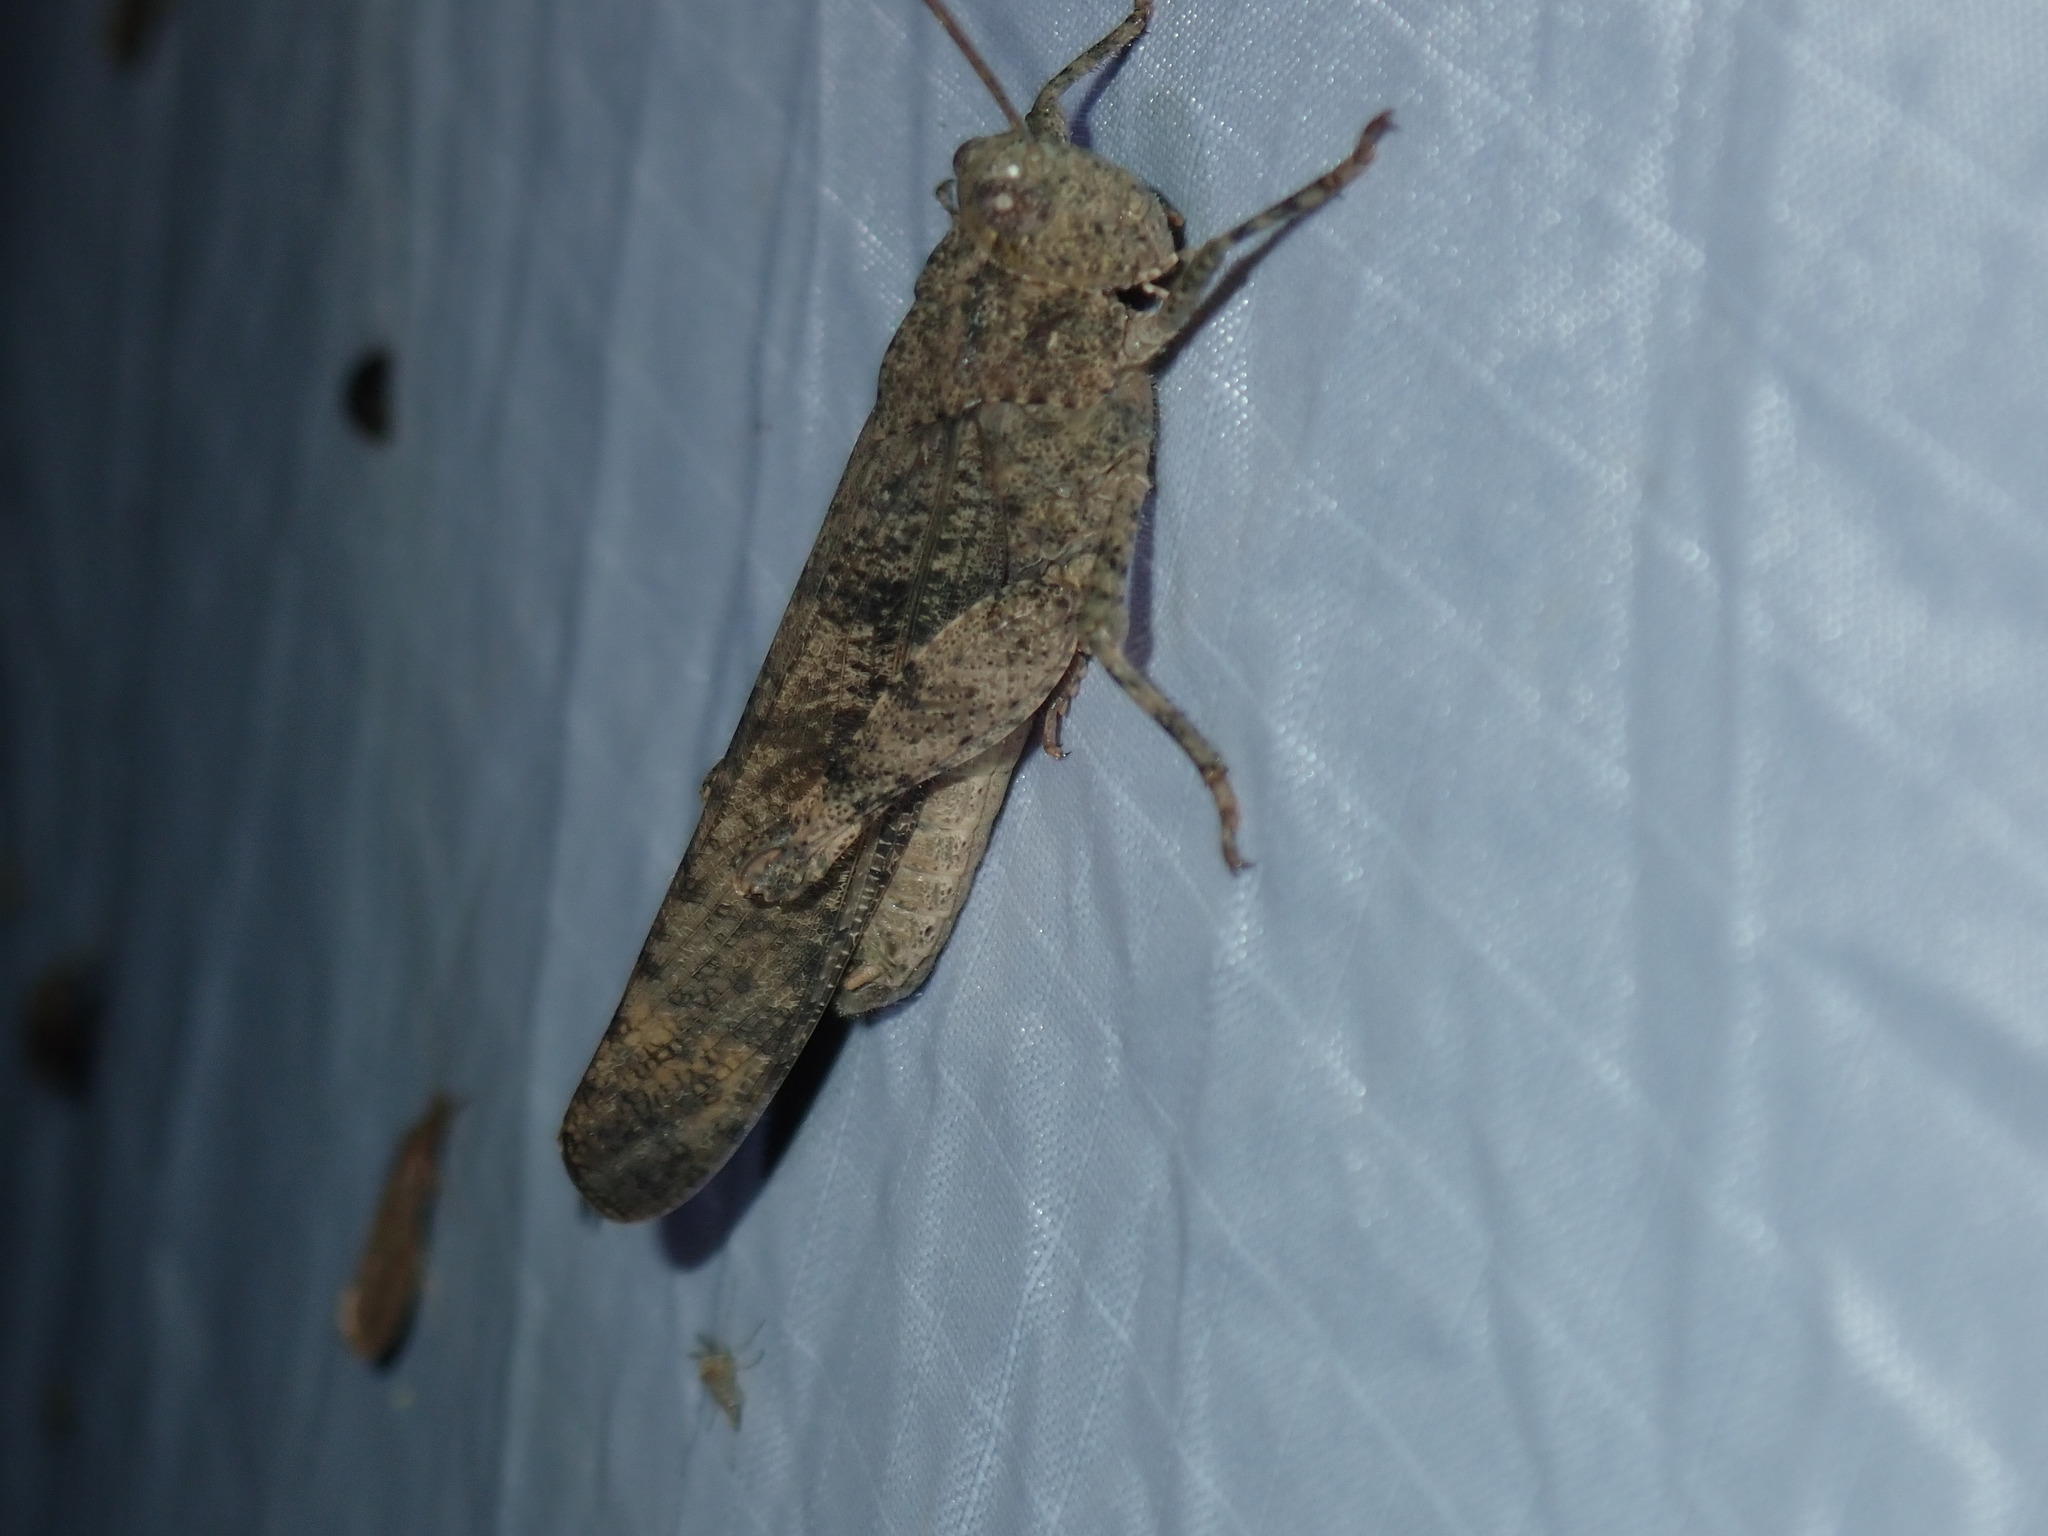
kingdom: Animalia
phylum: Arthropoda
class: Insecta
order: Orthoptera
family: Acrididae
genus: Dissosteira
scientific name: Dissosteira carolina
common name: Carolina grasshopper
